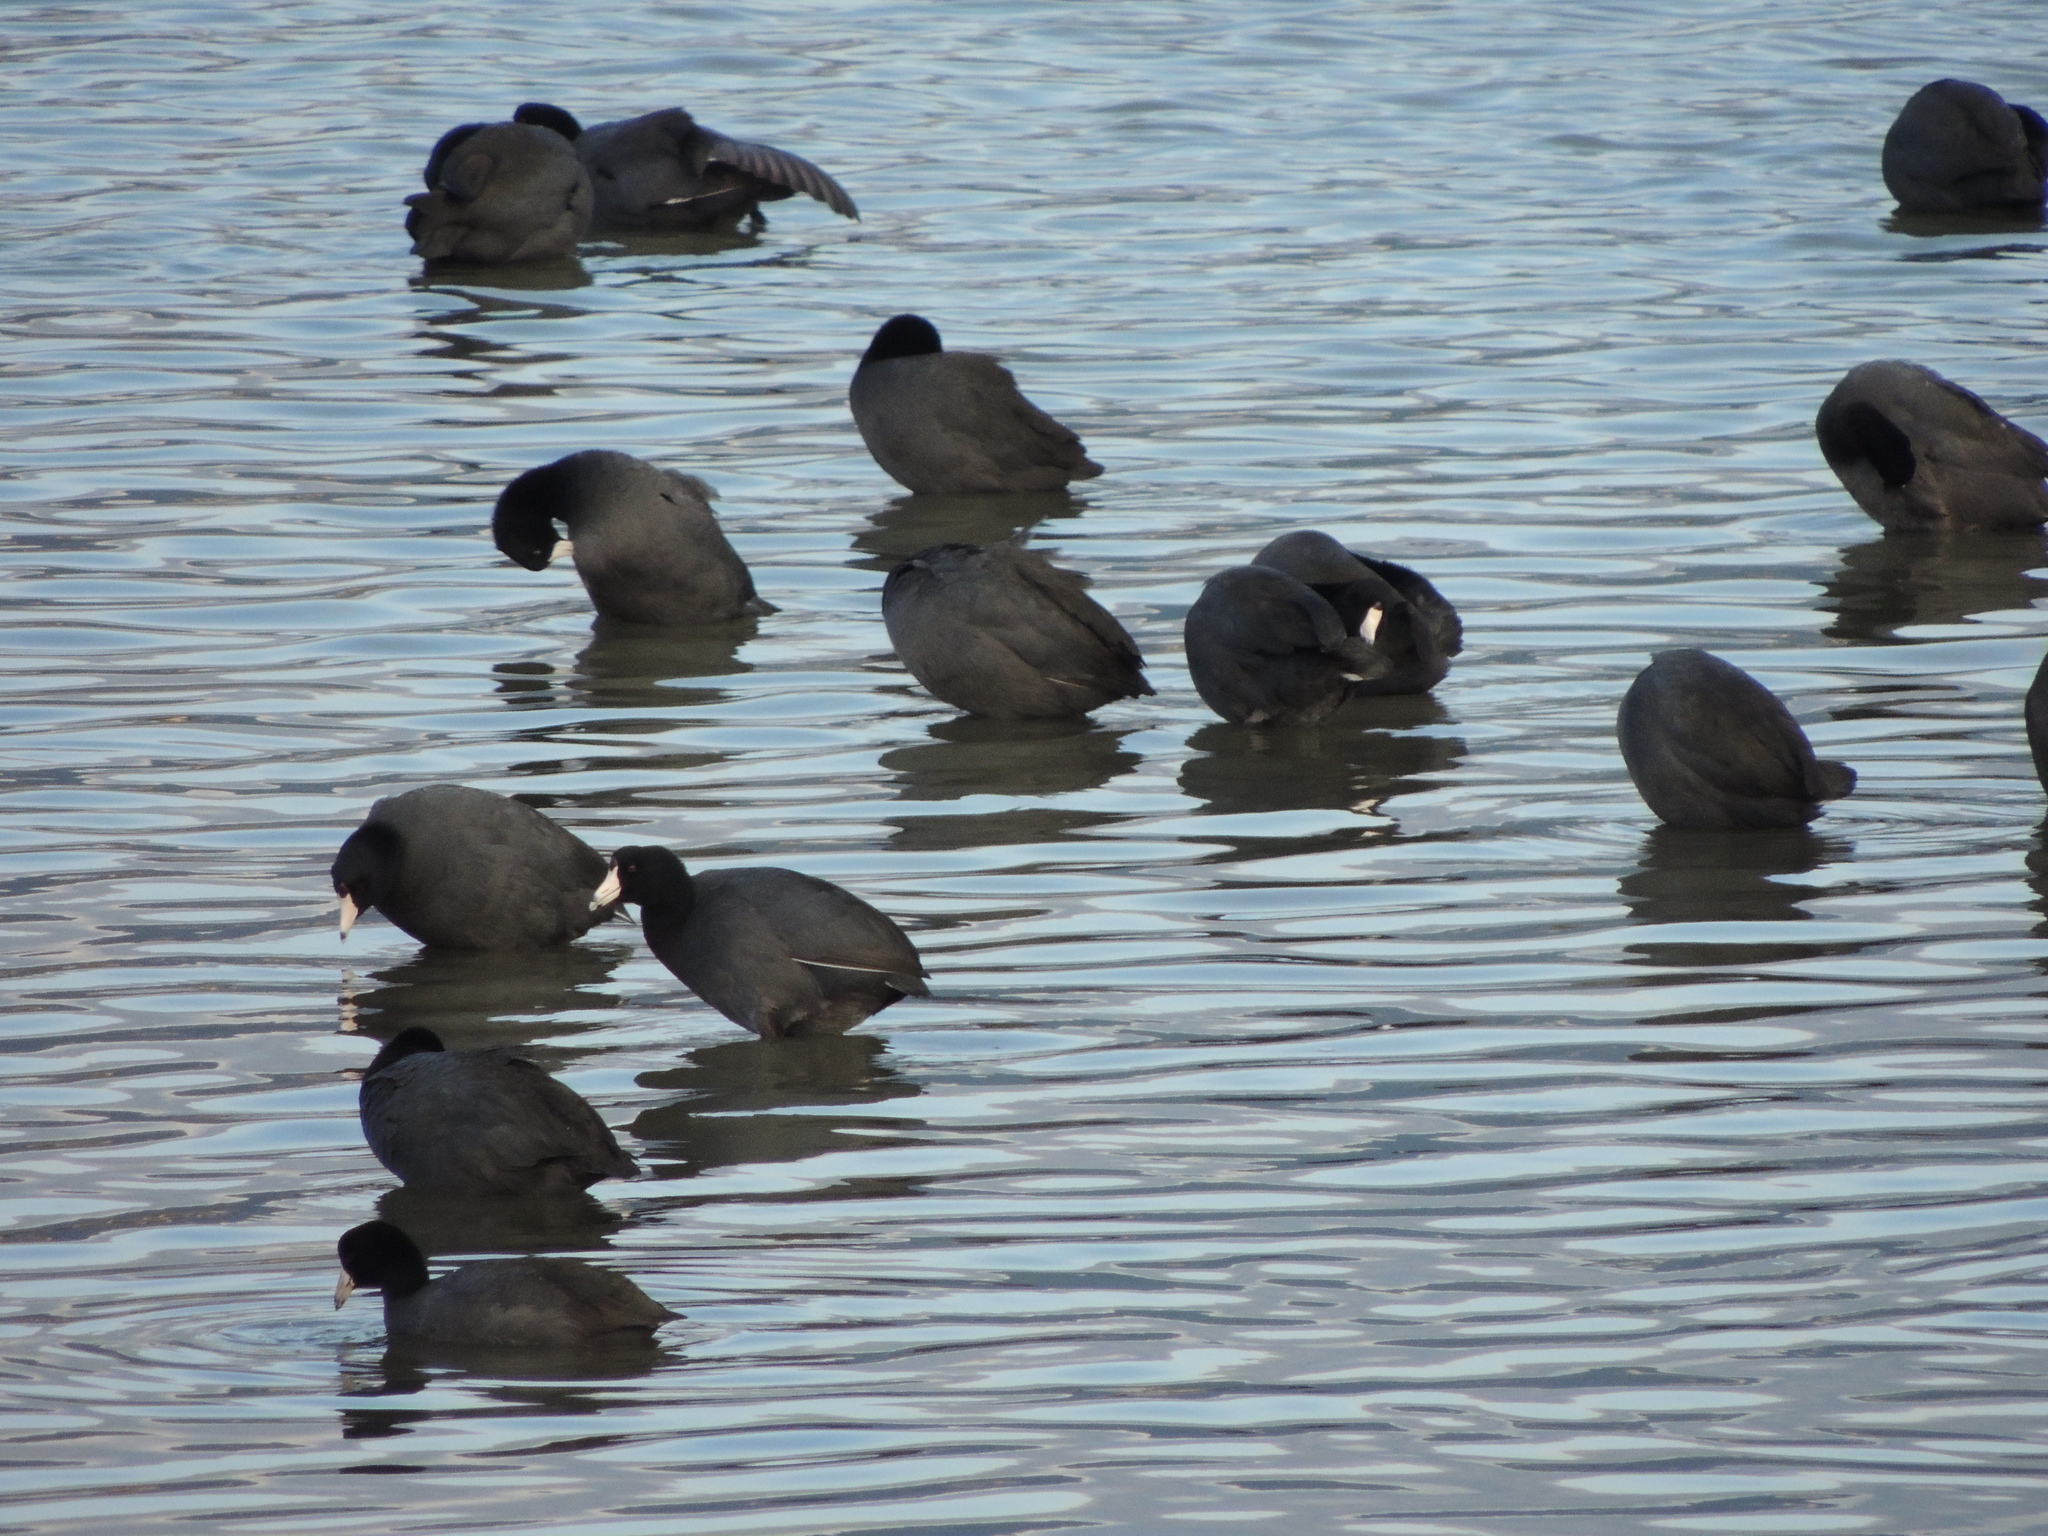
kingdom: Animalia
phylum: Chordata
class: Aves
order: Gruiformes
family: Rallidae
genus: Fulica
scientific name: Fulica americana
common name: American coot
